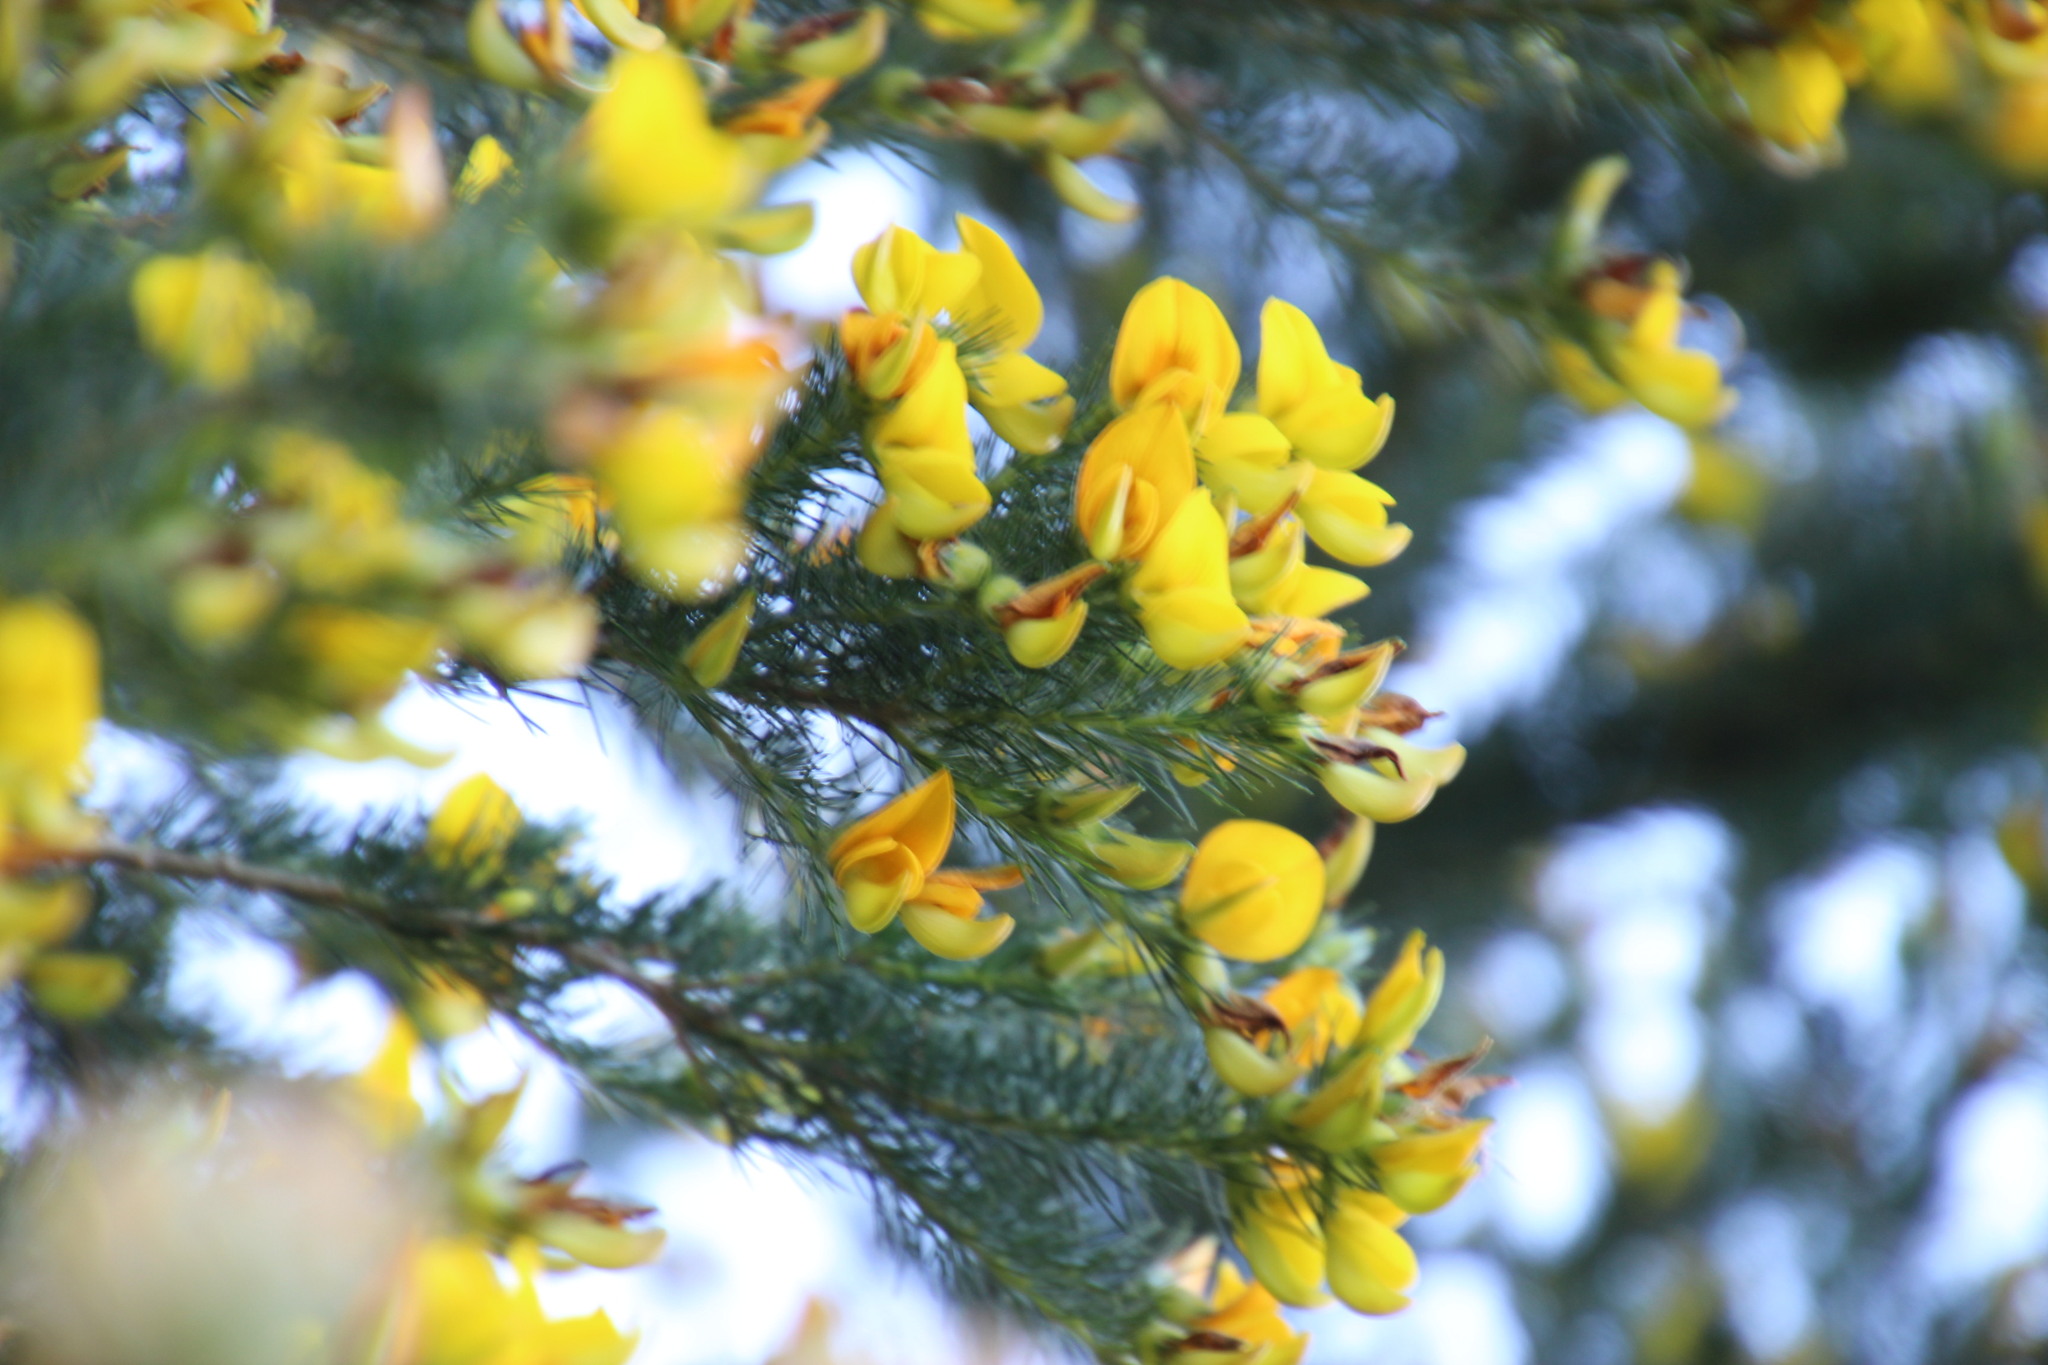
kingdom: Plantae
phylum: Tracheophyta
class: Magnoliopsida
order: Fabales
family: Fabaceae
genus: Aspalathus
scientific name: Aspalathus macrantha
